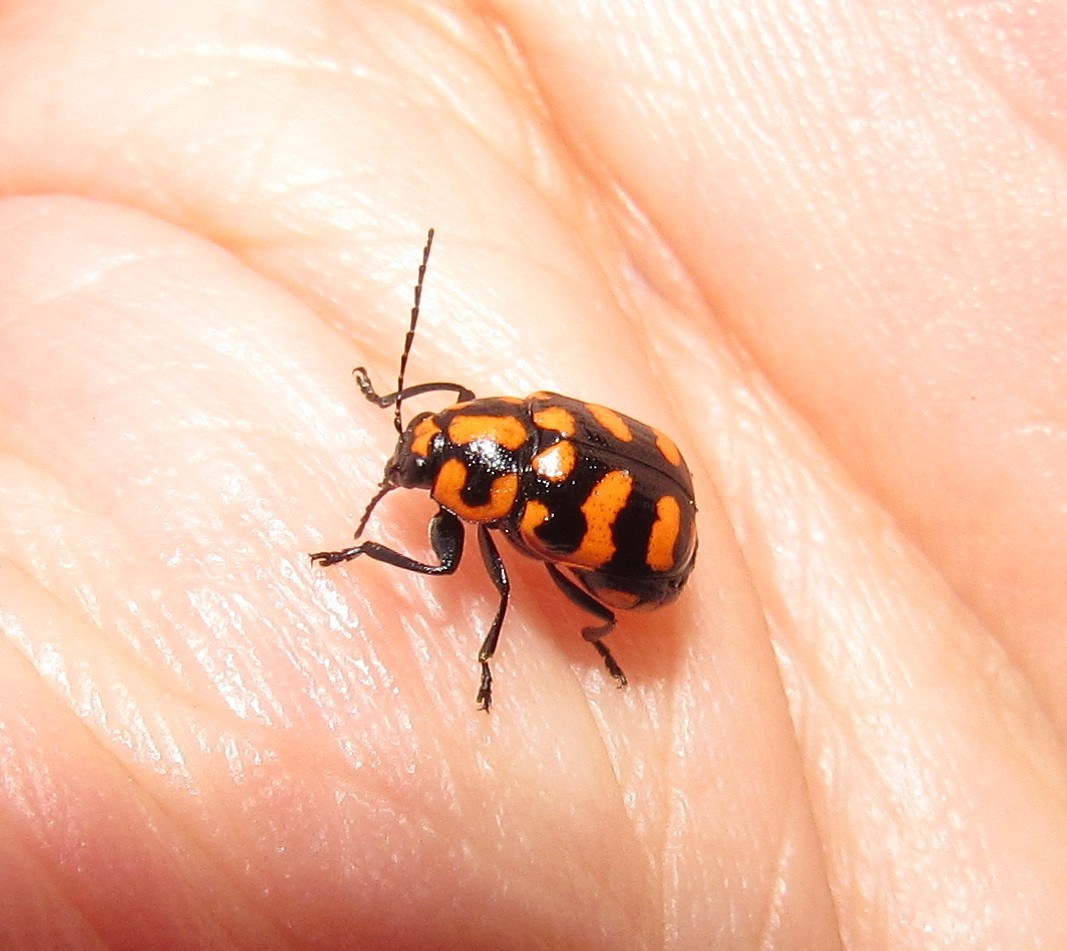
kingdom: Animalia
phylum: Arthropoda
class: Insecta
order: Coleoptera
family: Chrysomelidae
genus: Metallactus
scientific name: Metallactus luniger
